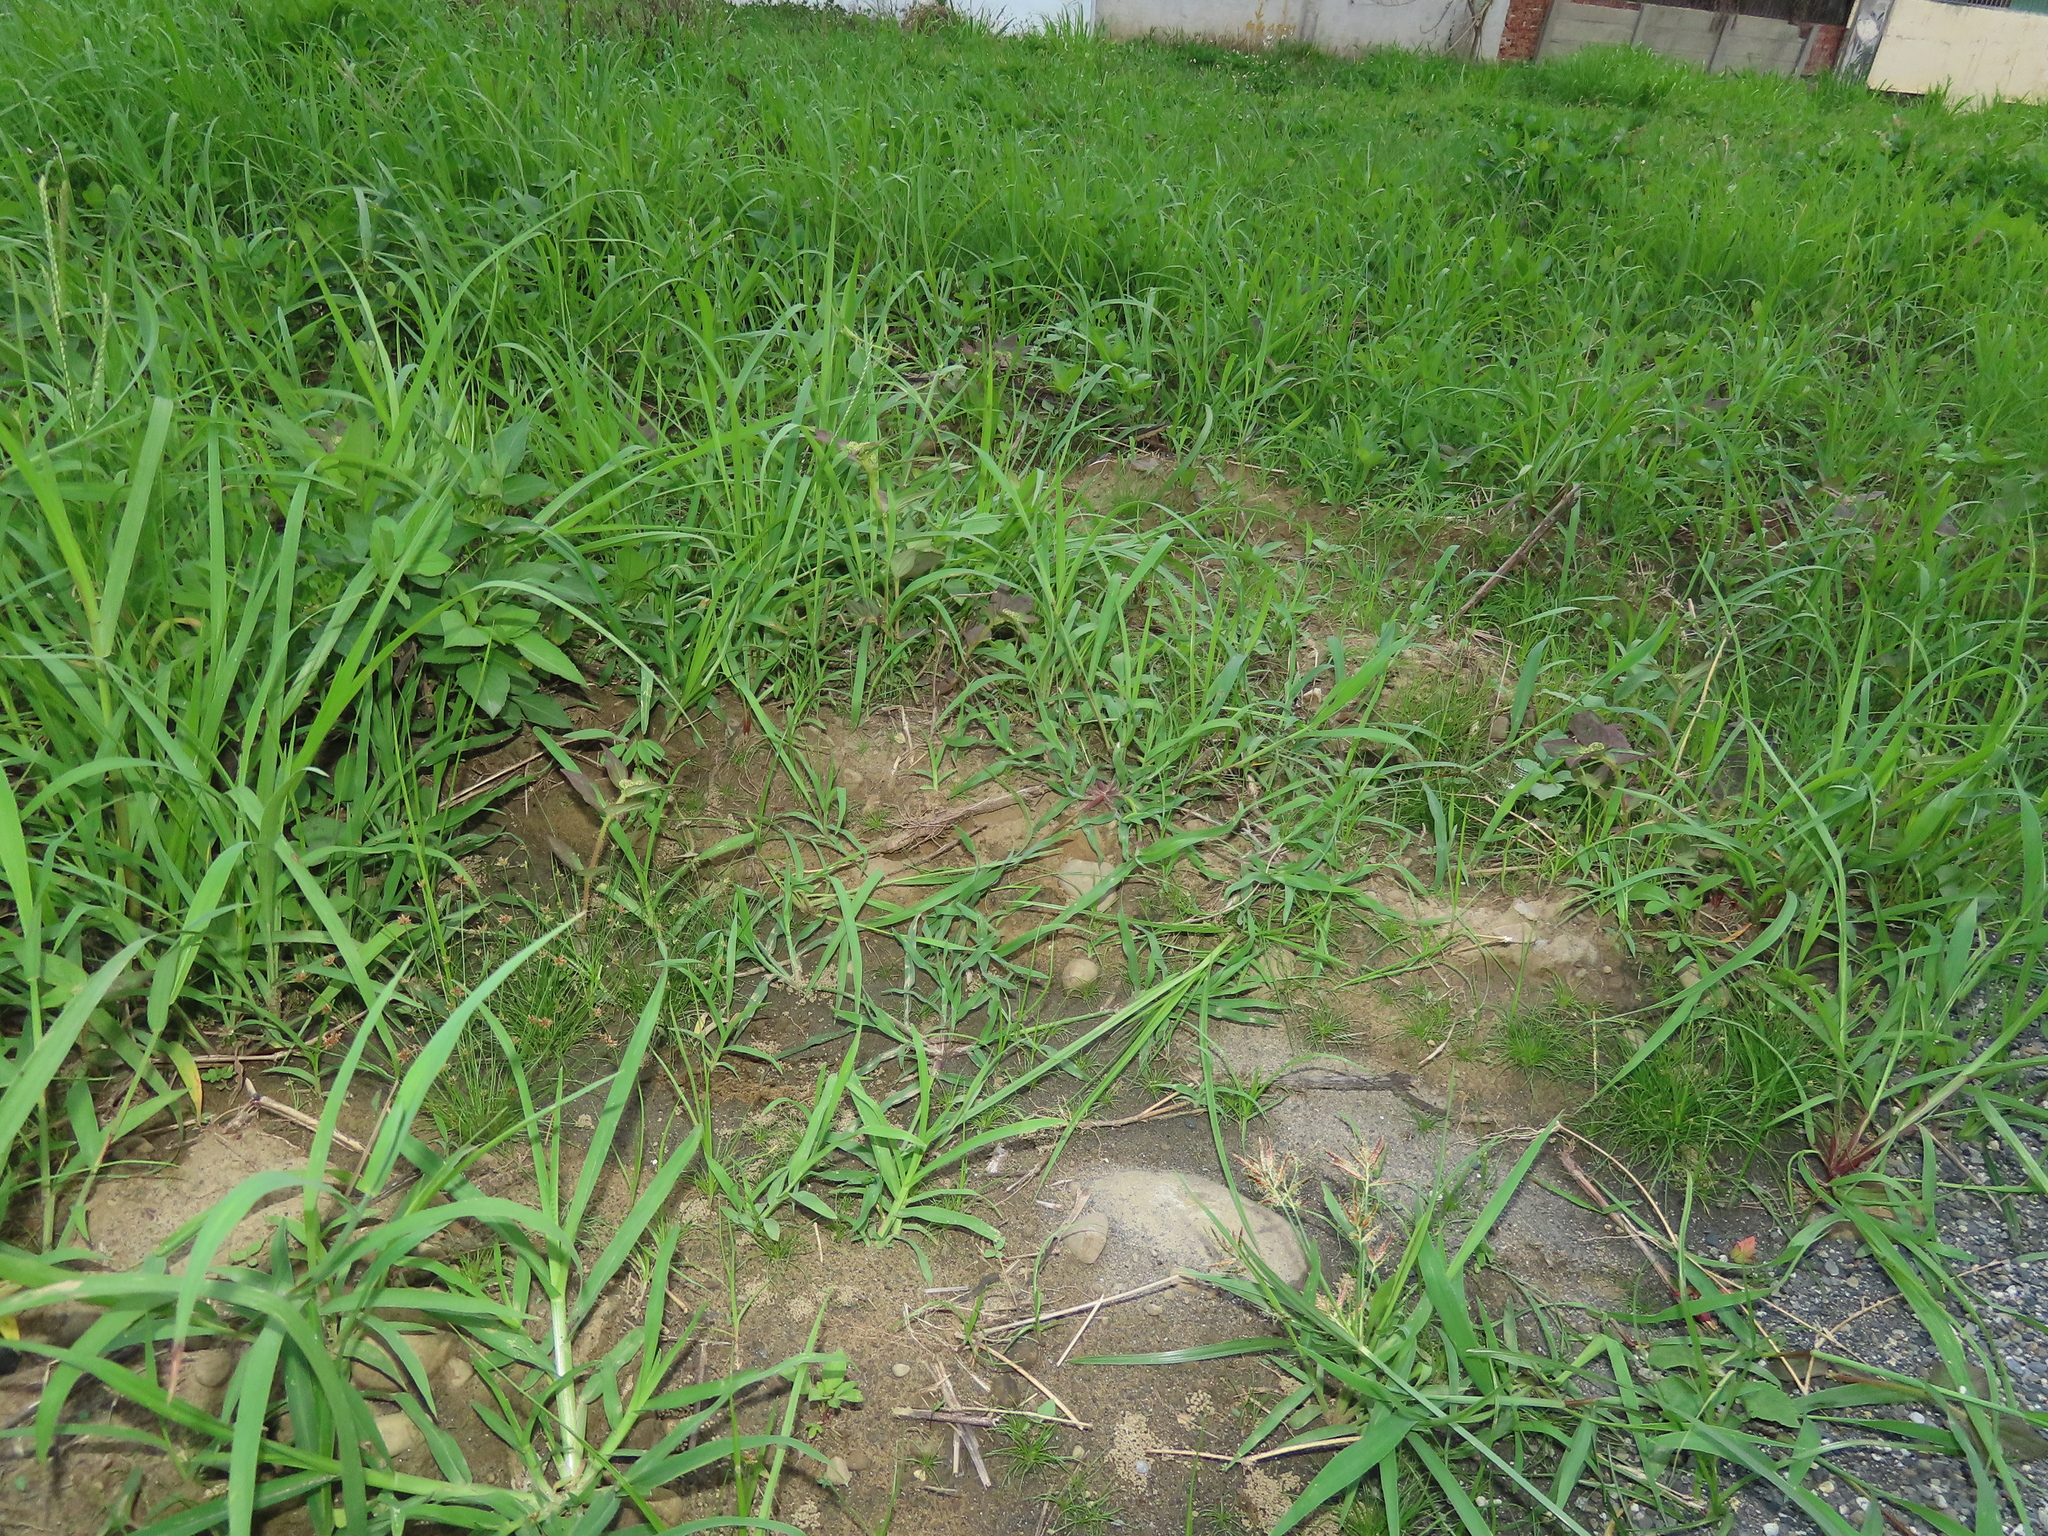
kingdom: Plantae
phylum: Tracheophyta
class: Liliopsida
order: Poales
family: Cyperaceae
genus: Bulbostylis
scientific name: Bulbostylis barbata
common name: Watergrass
